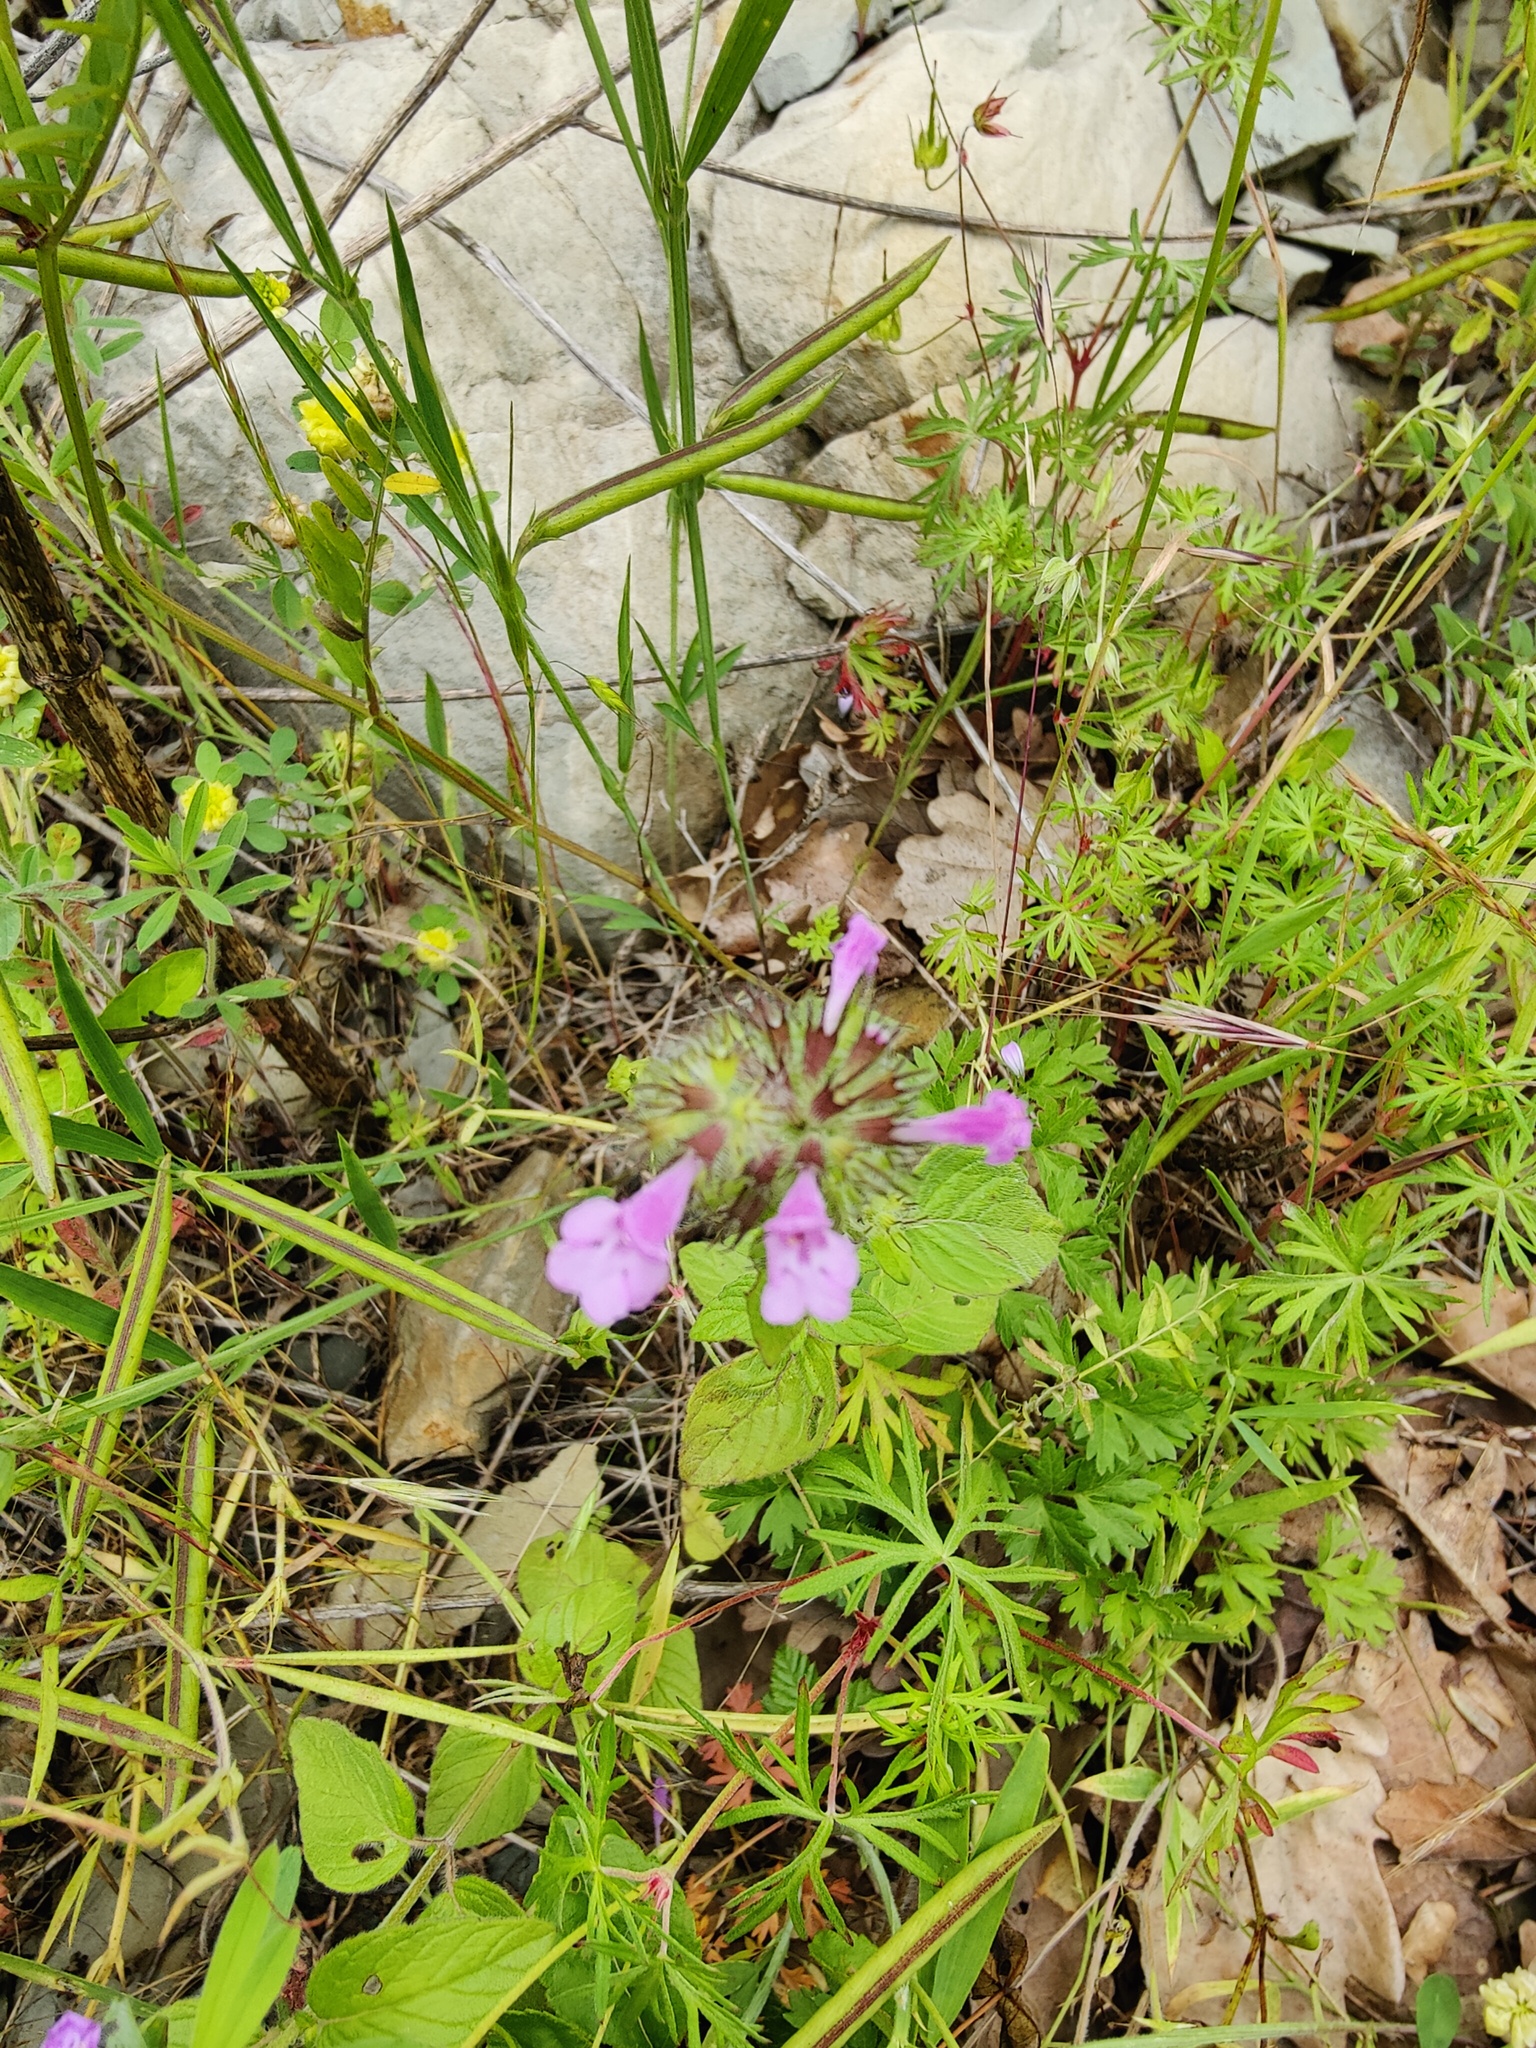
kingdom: Plantae
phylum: Tracheophyta
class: Magnoliopsida
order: Lamiales
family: Lamiaceae
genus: Clinopodium
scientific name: Clinopodium caucasicum
